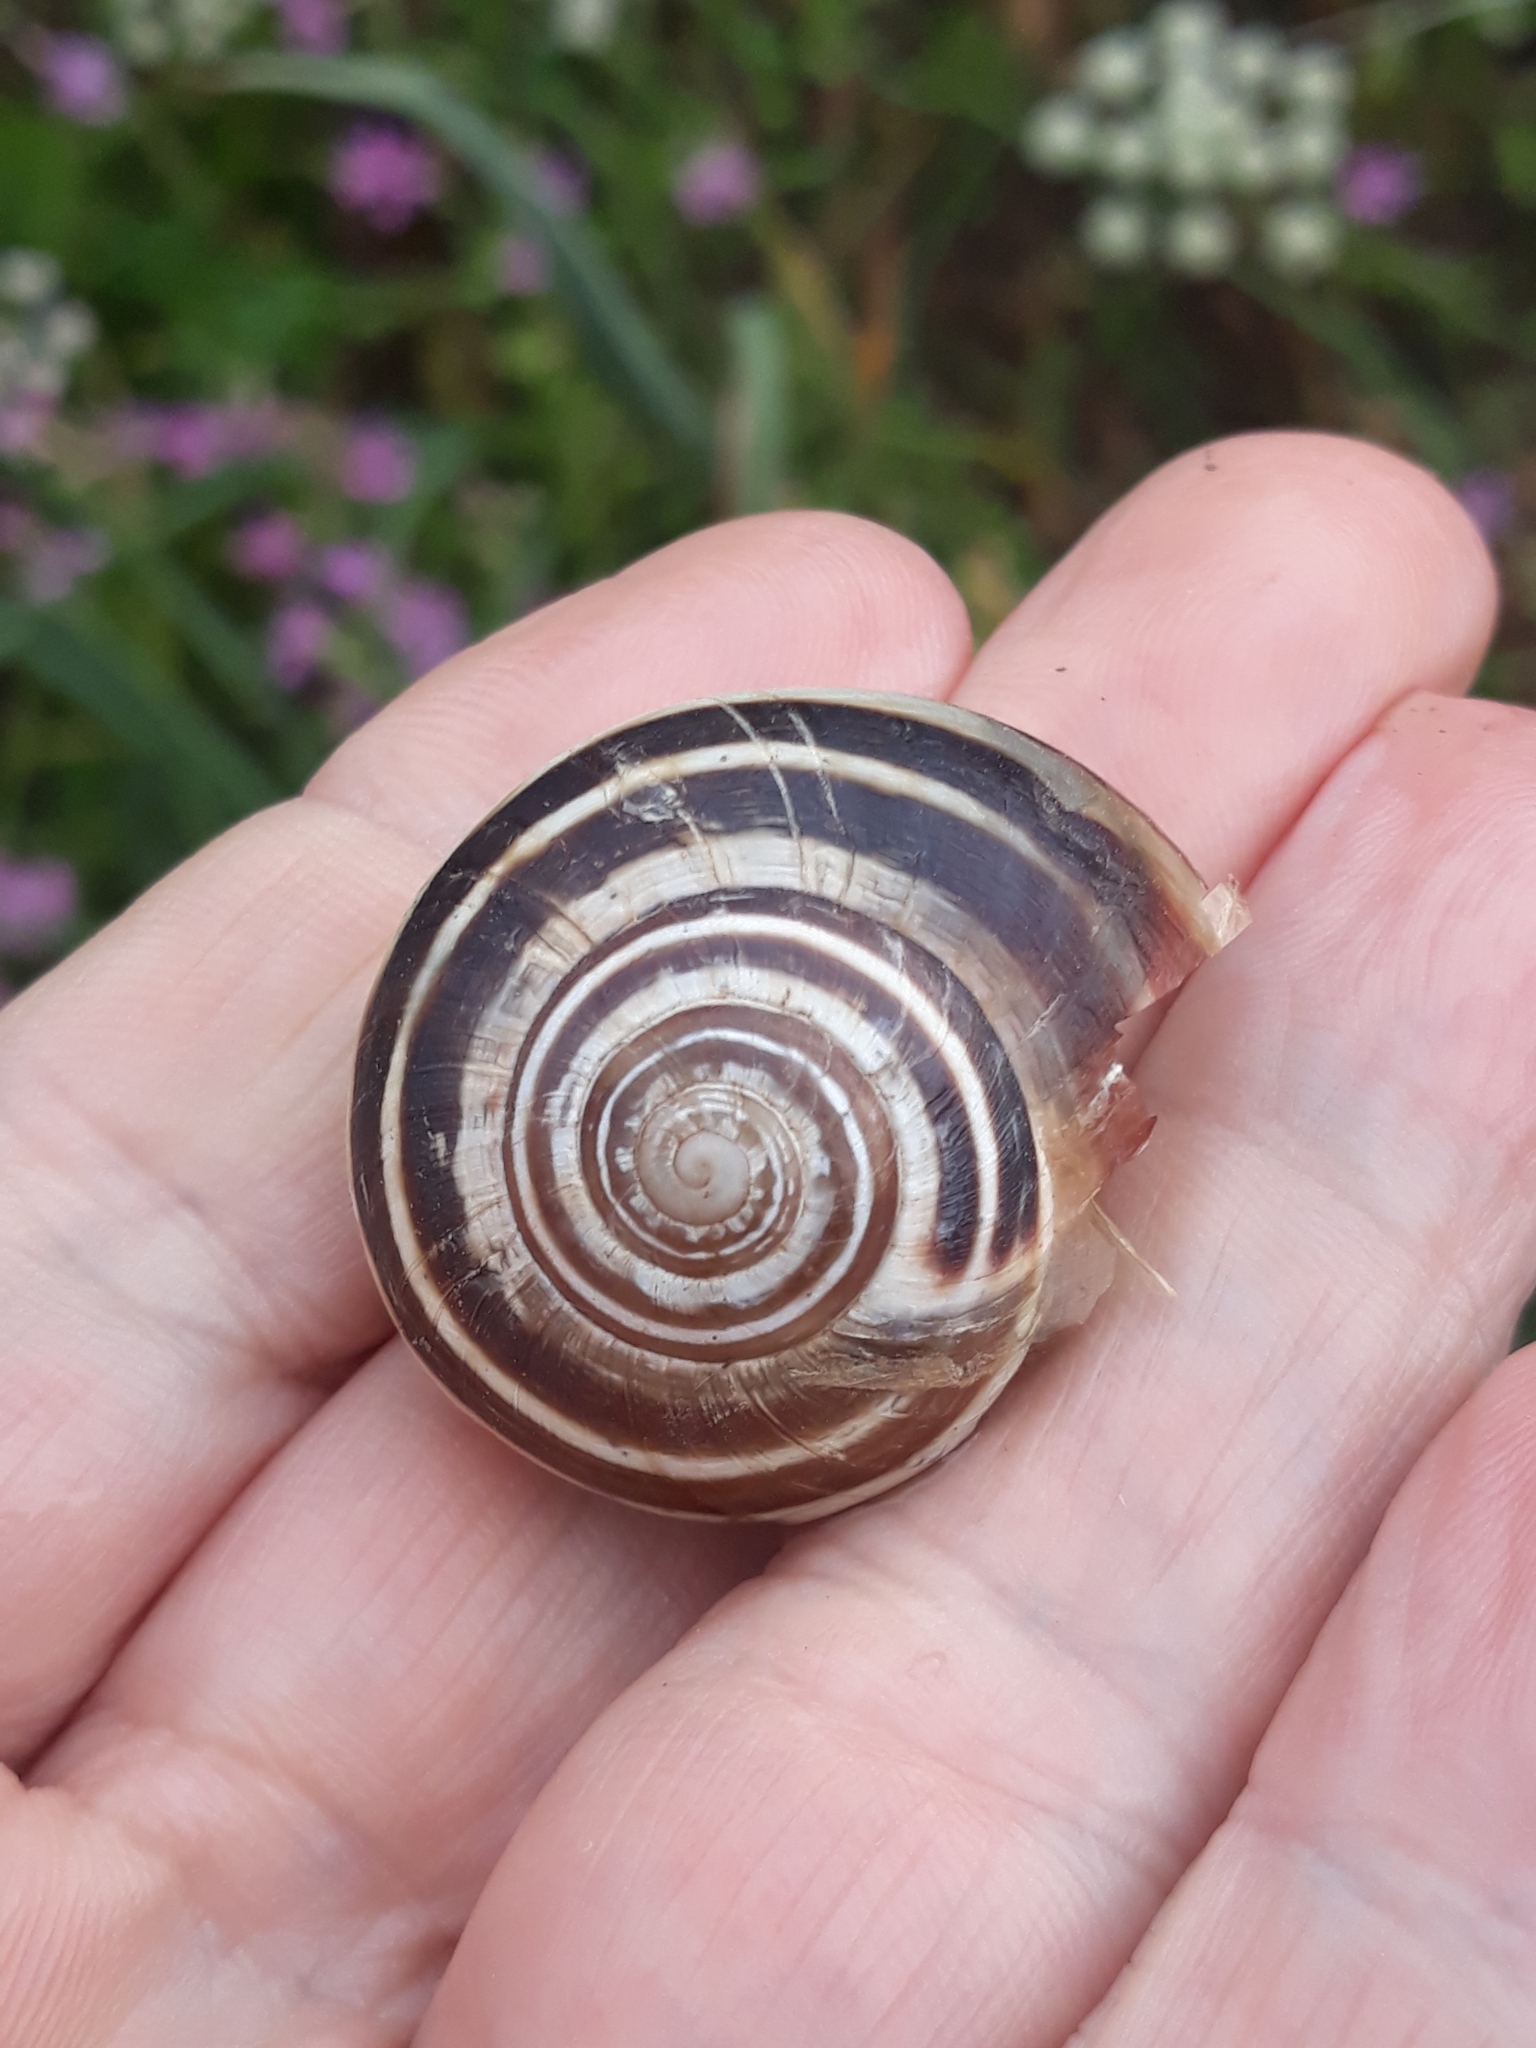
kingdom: Animalia
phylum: Mollusca
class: Gastropoda
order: Stylommatophora
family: Helicidae
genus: Eobania
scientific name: Eobania constantina
